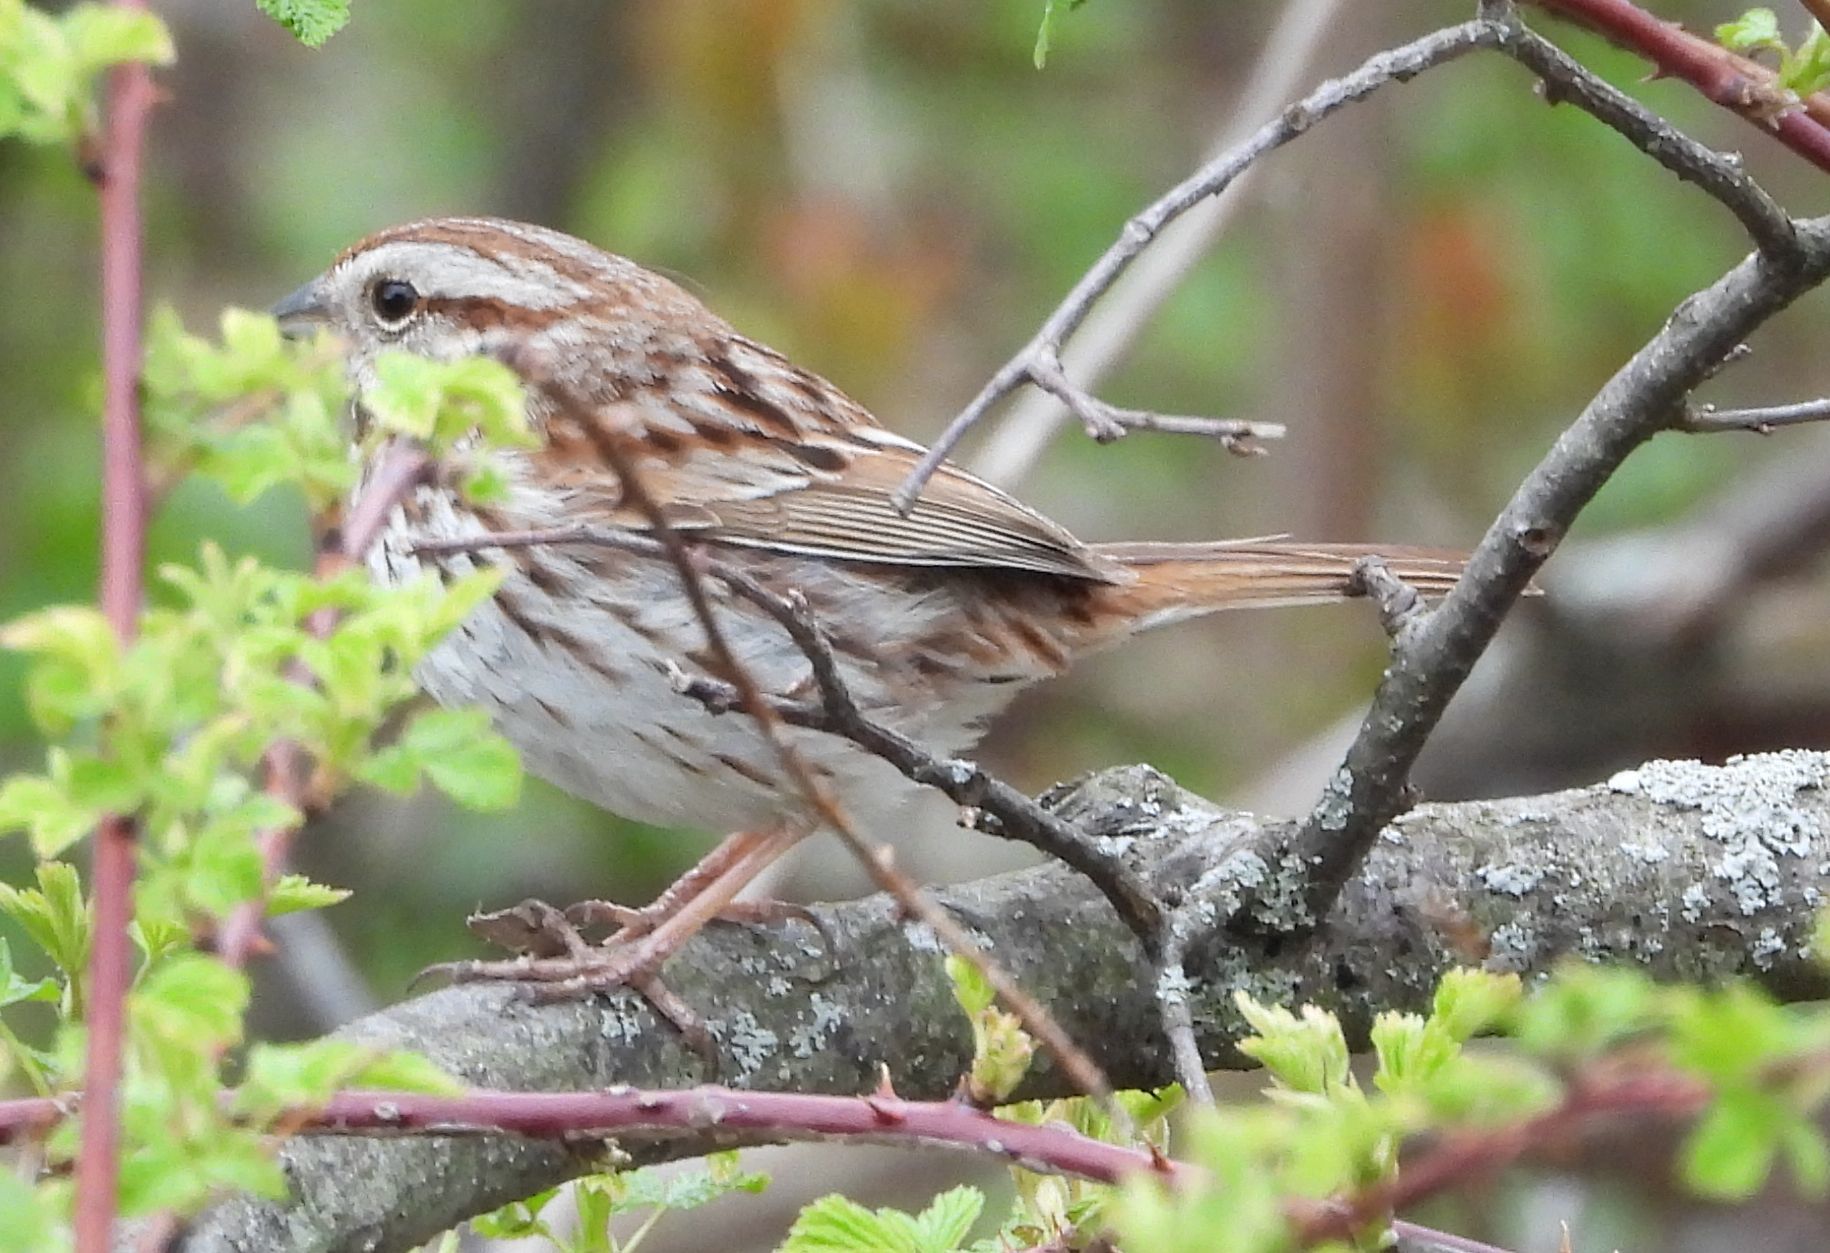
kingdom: Animalia
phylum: Chordata
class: Aves
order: Passeriformes
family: Passerellidae
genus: Melospiza
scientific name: Melospiza melodia
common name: Song sparrow
